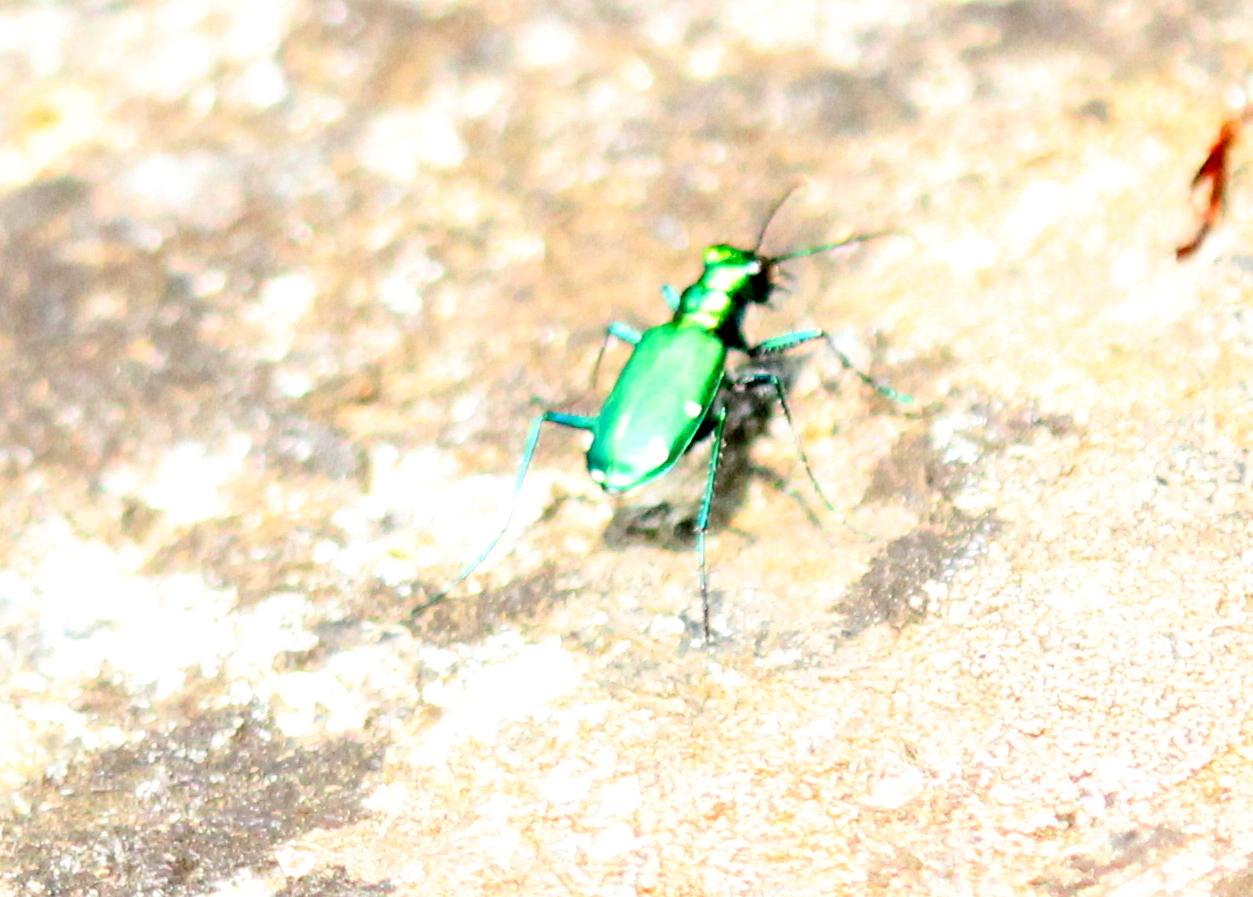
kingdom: Animalia
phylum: Arthropoda
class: Insecta
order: Coleoptera
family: Carabidae
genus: Cicindela
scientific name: Cicindela sexguttata
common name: Six-spotted tiger beetle
